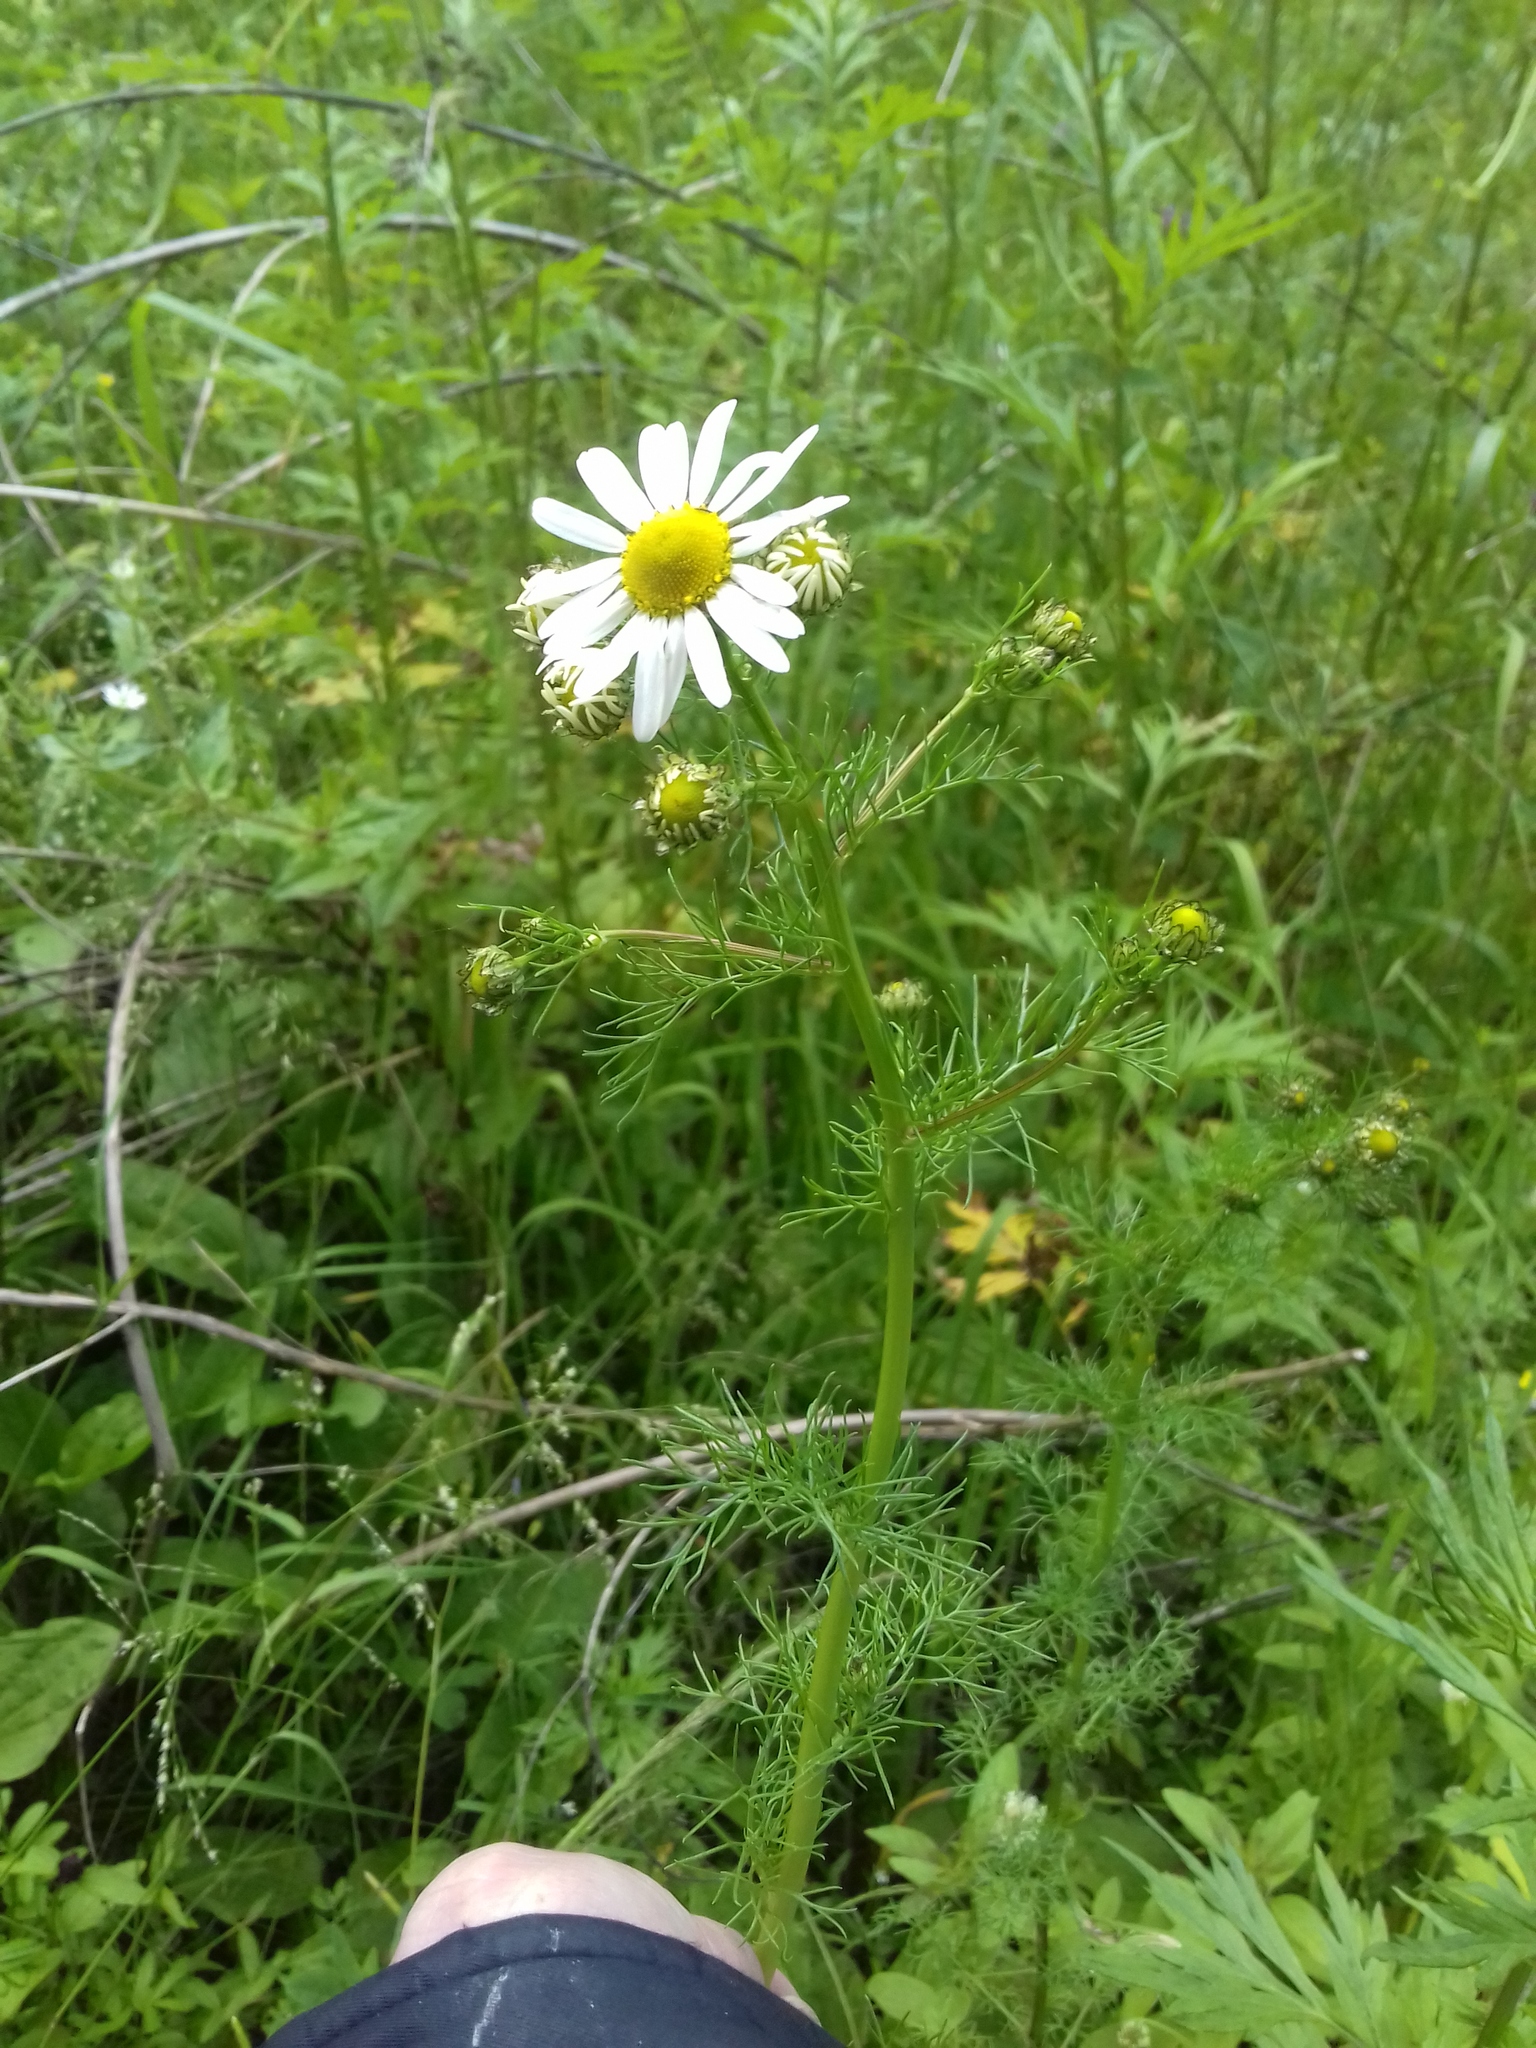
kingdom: Plantae
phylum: Tracheophyta
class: Magnoliopsida
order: Asterales
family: Asteraceae
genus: Tripleurospermum
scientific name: Tripleurospermum inodorum
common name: Scentless mayweed
